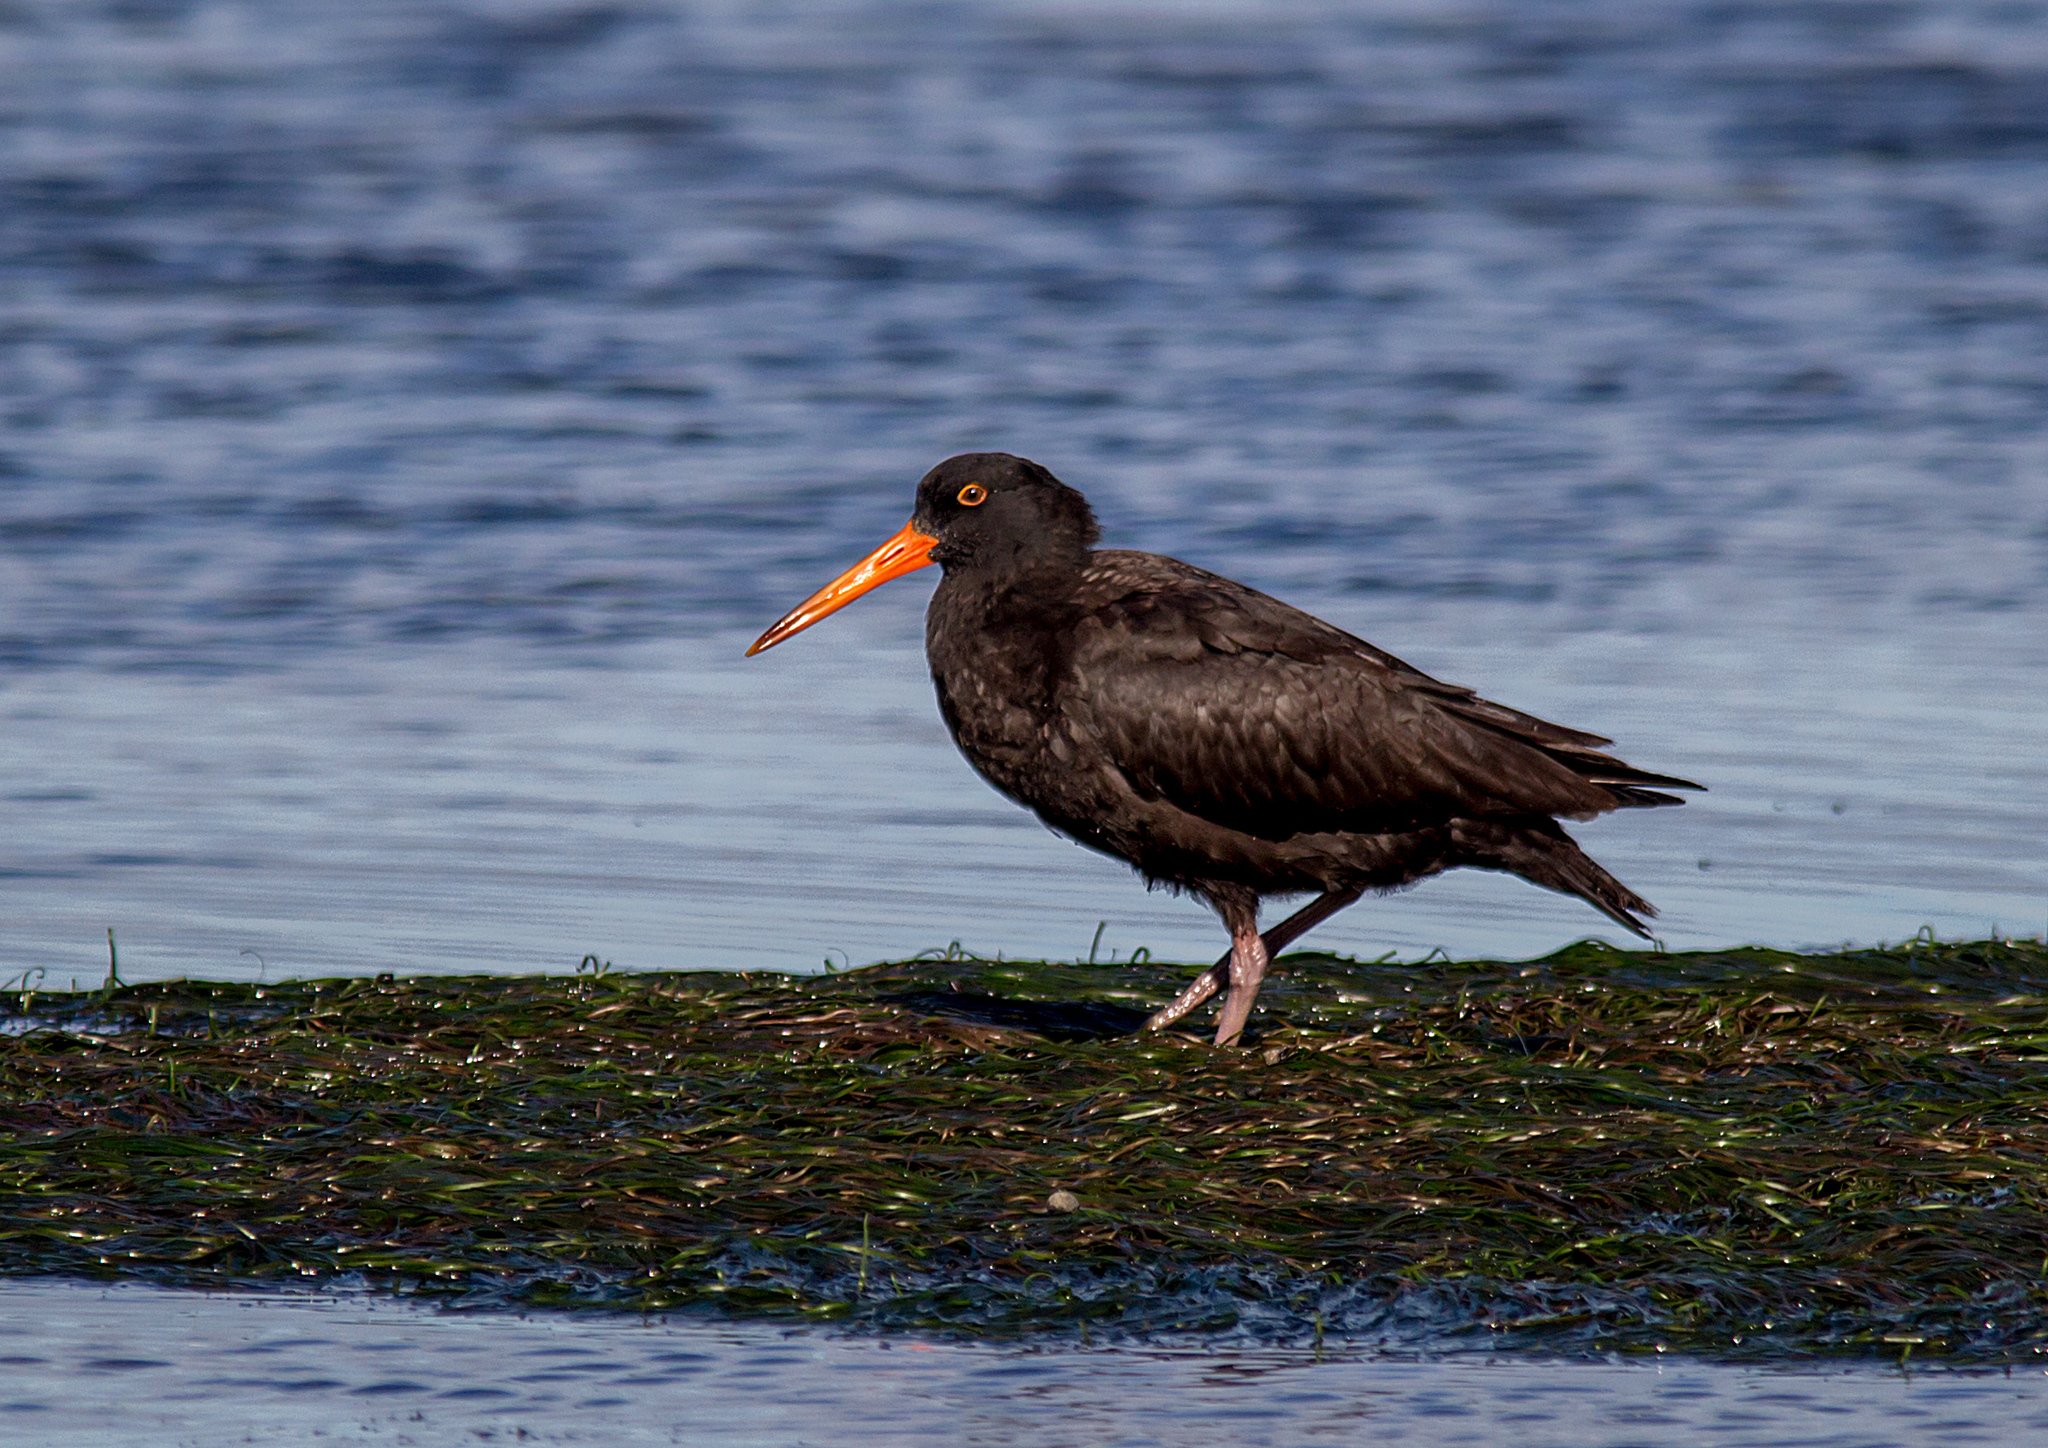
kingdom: Animalia
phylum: Chordata
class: Aves
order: Charadriiformes
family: Haematopodidae
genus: Haematopus
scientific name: Haematopus fuliginosus
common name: Sooty oystercatcher
